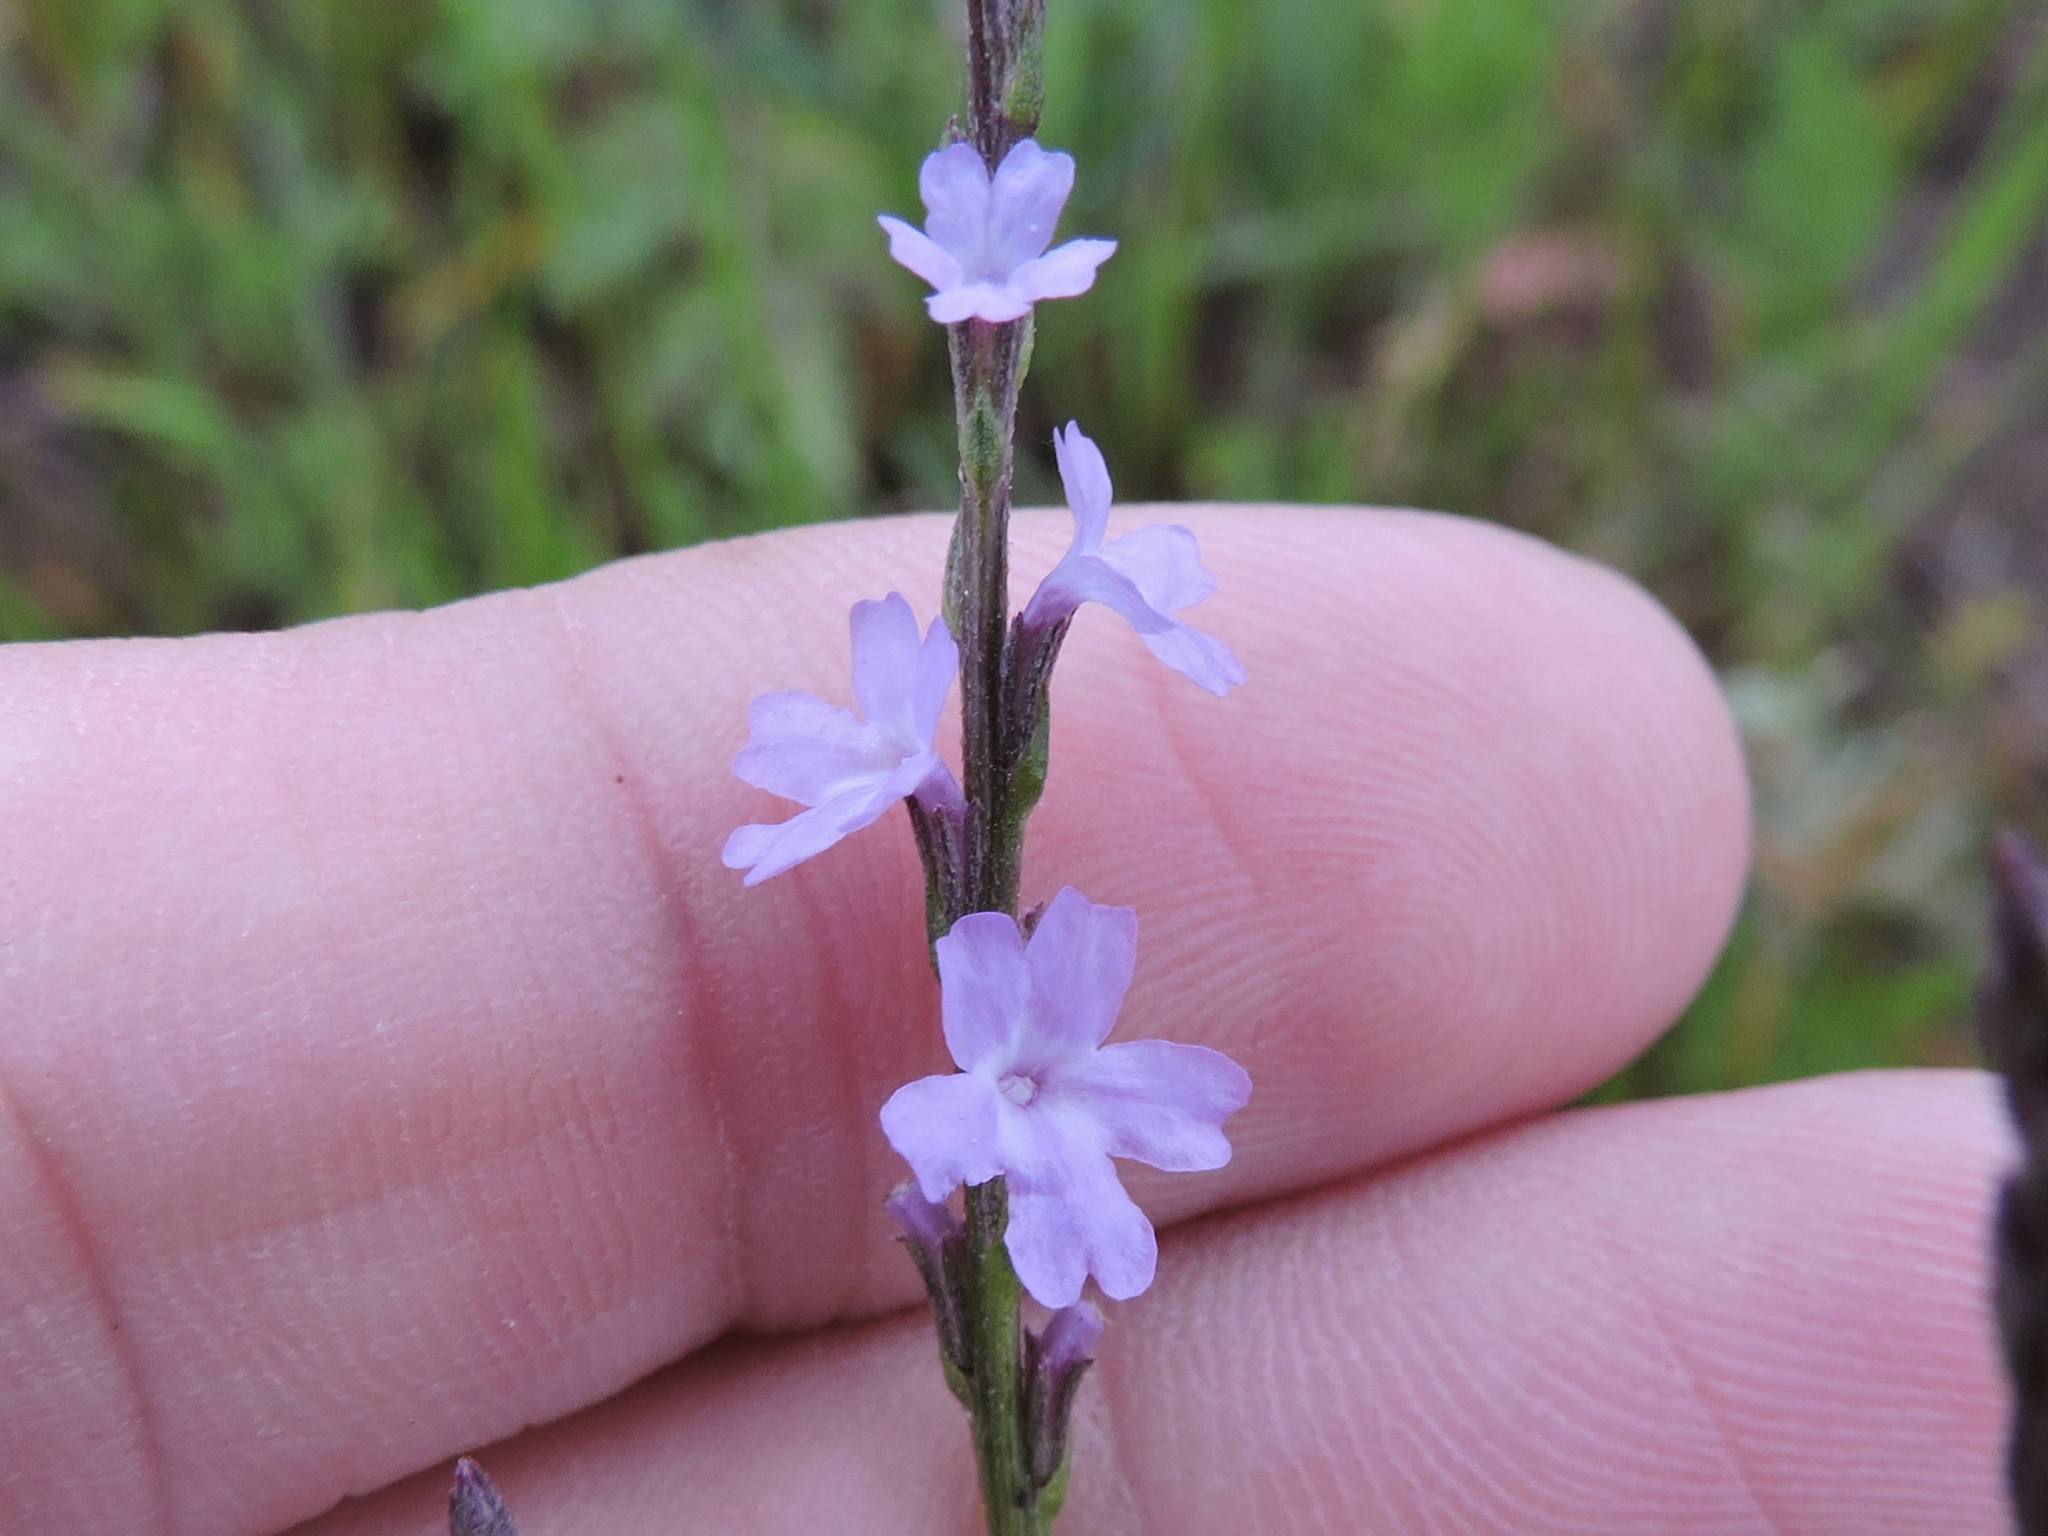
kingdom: Plantae
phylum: Tracheophyta
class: Magnoliopsida
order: Lamiales
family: Verbenaceae
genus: Verbena
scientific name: Verbena halei
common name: Texas vervain
